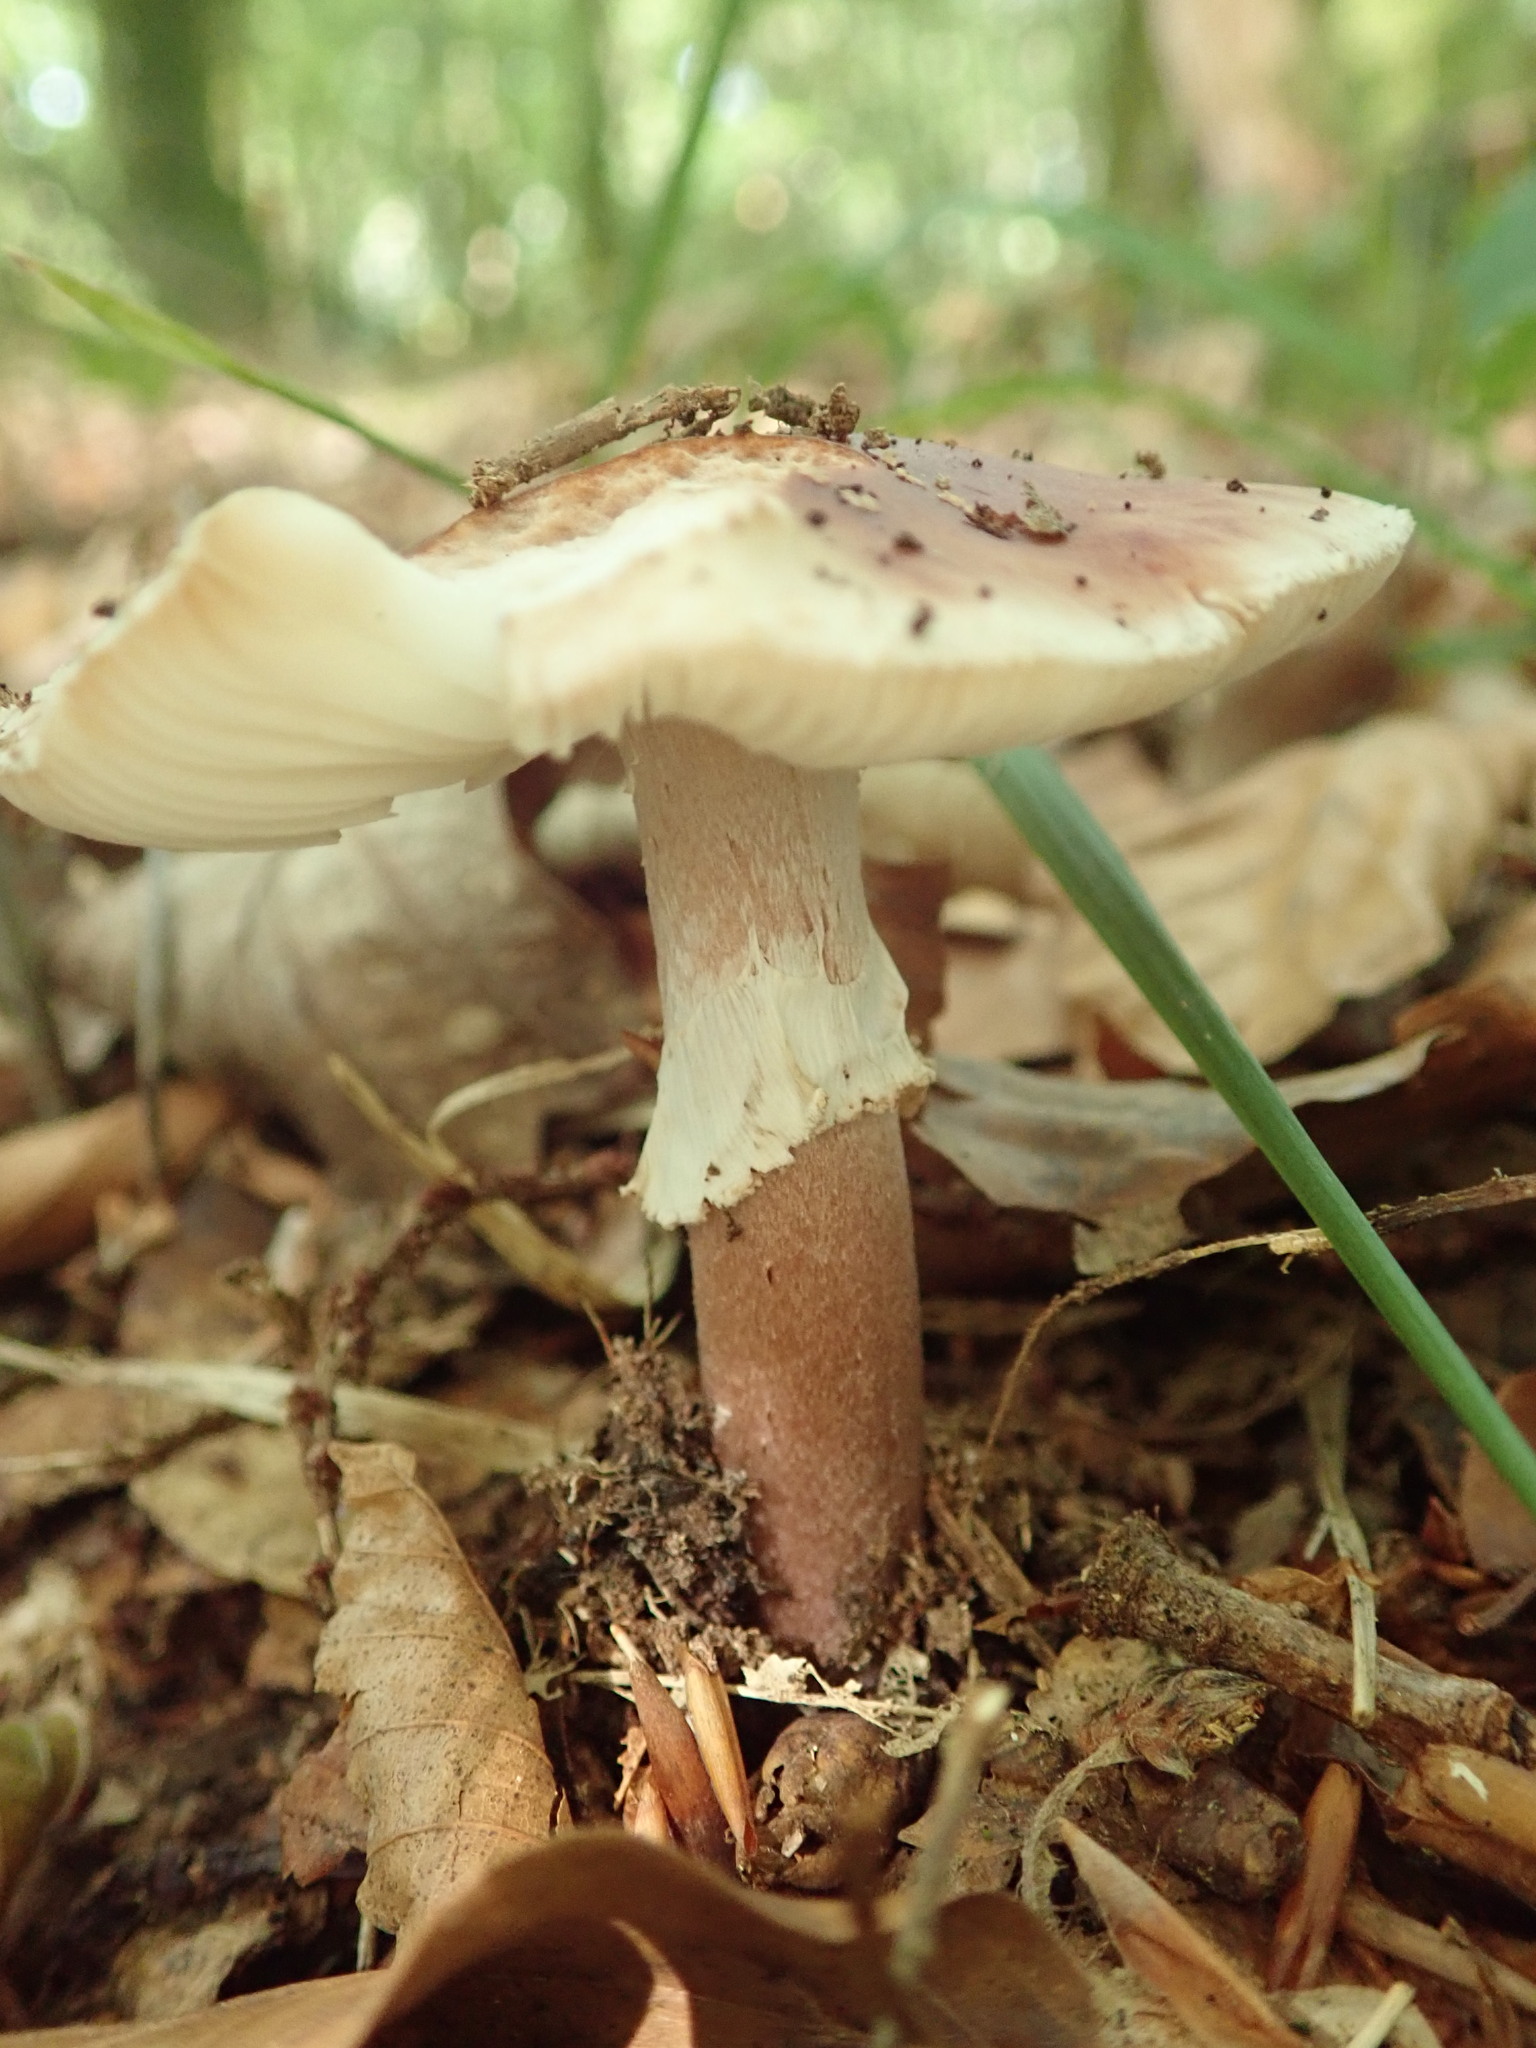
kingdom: Fungi
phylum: Basidiomycota
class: Agaricomycetes
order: Agaricales
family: Amanitaceae
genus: Amanita
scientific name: Amanita rubescens
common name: Blusher
